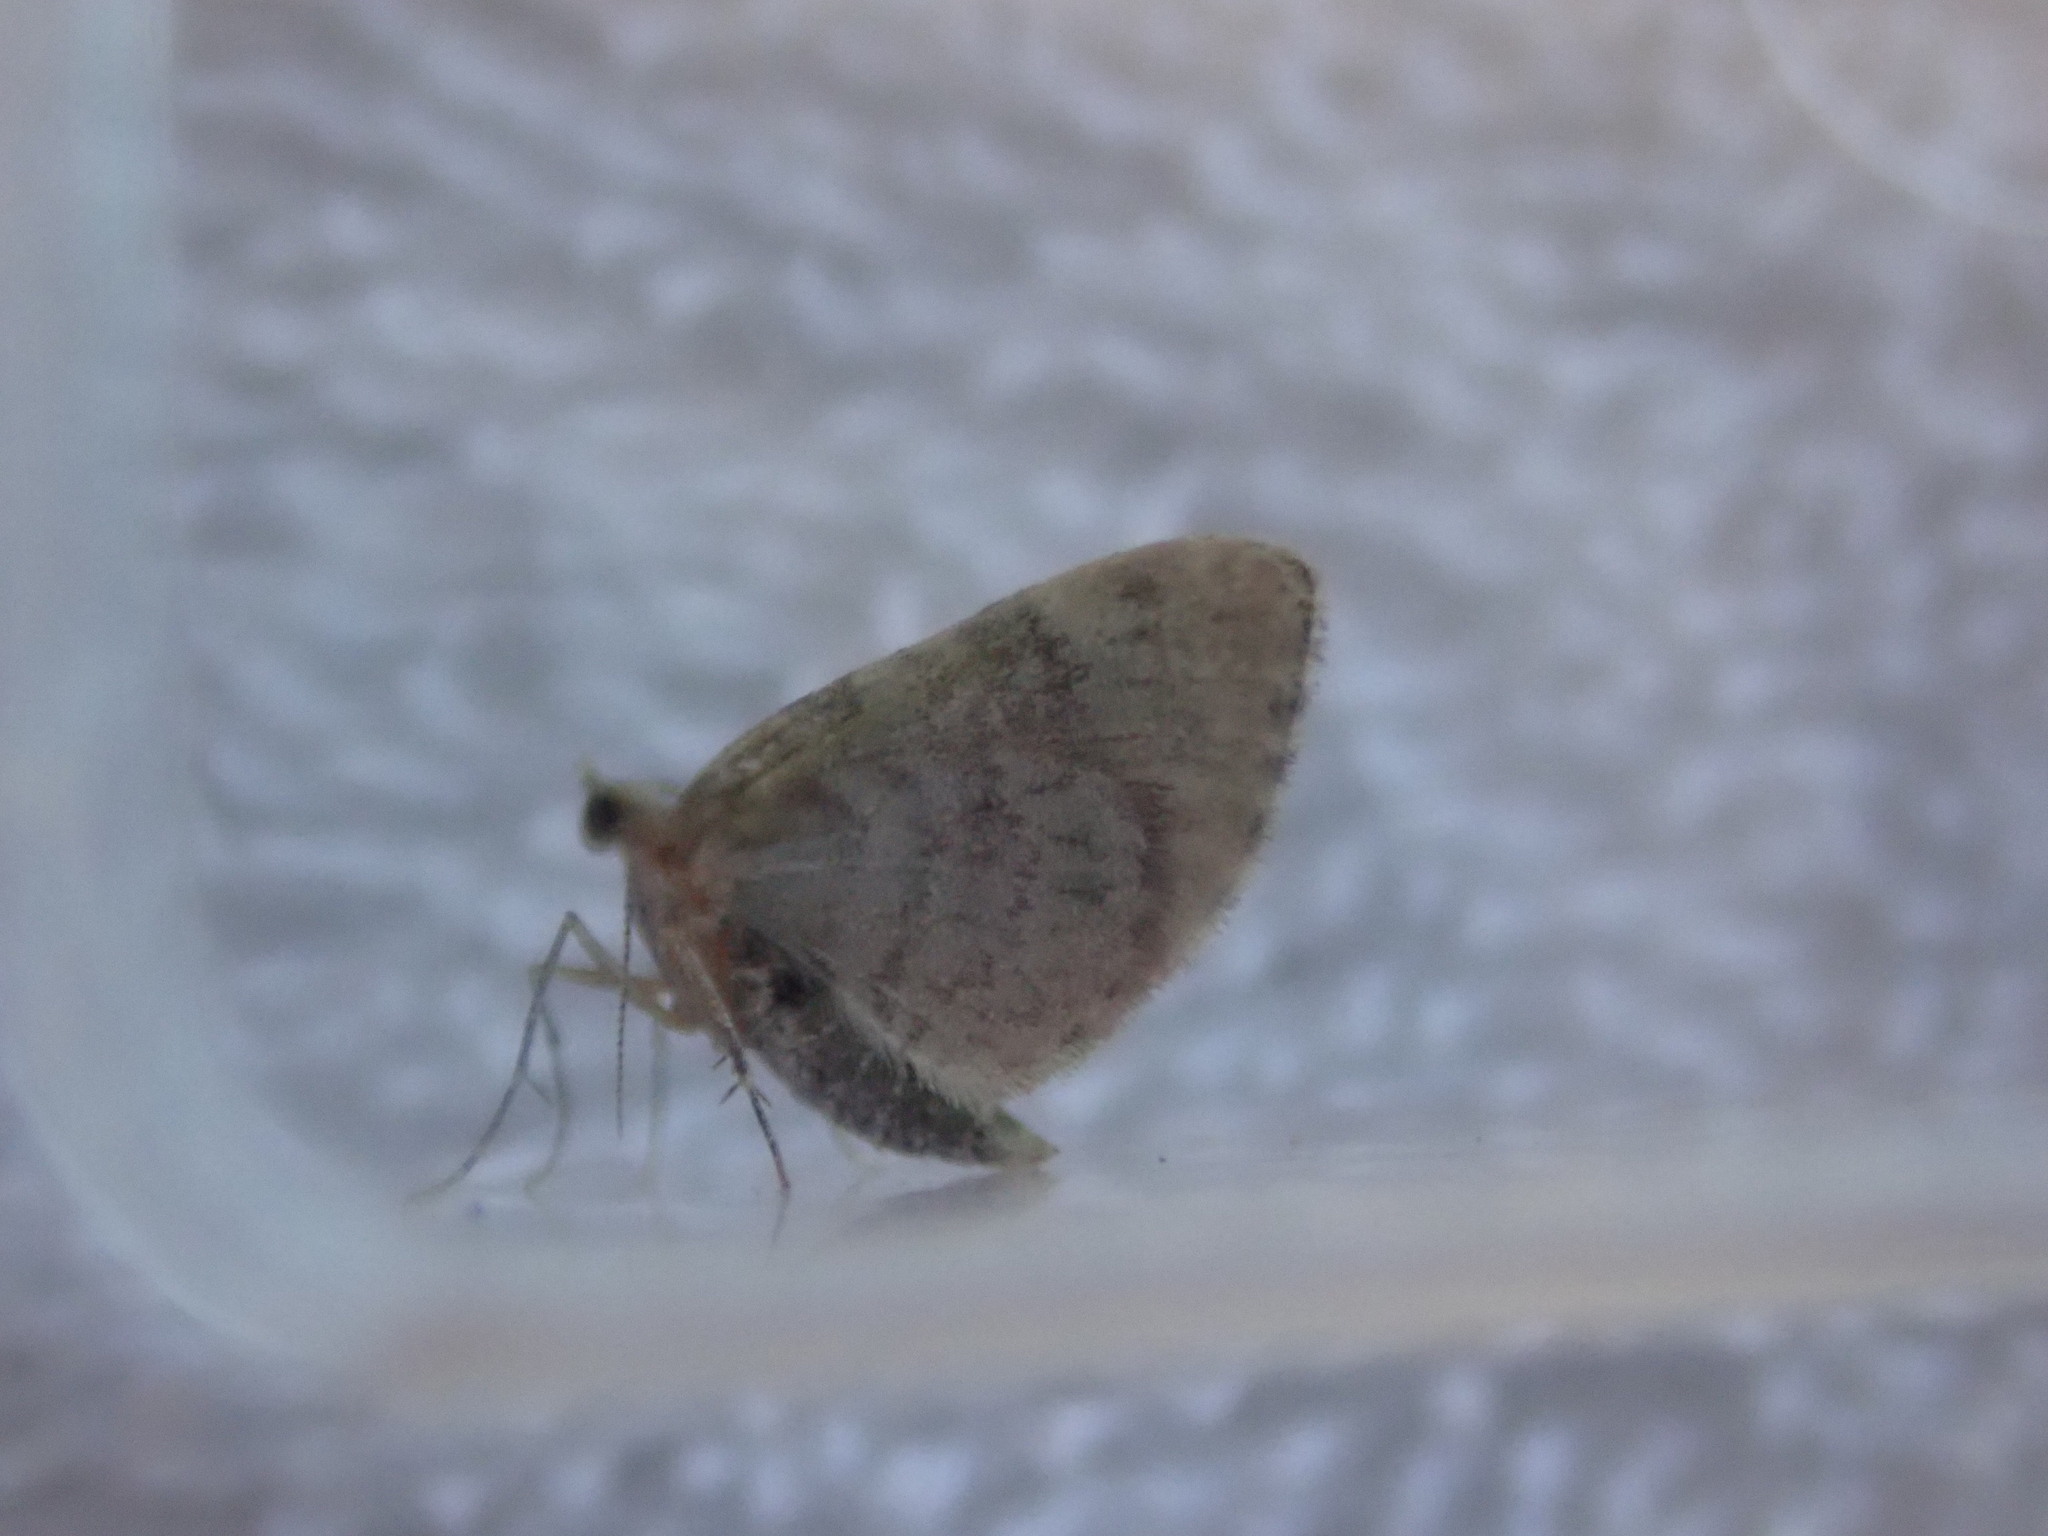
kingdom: Animalia
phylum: Arthropoda
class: Insecta
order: Lepidoptera
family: Geometridae
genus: Euchoeca
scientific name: Euchoeca nebulata
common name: Dingy shell
